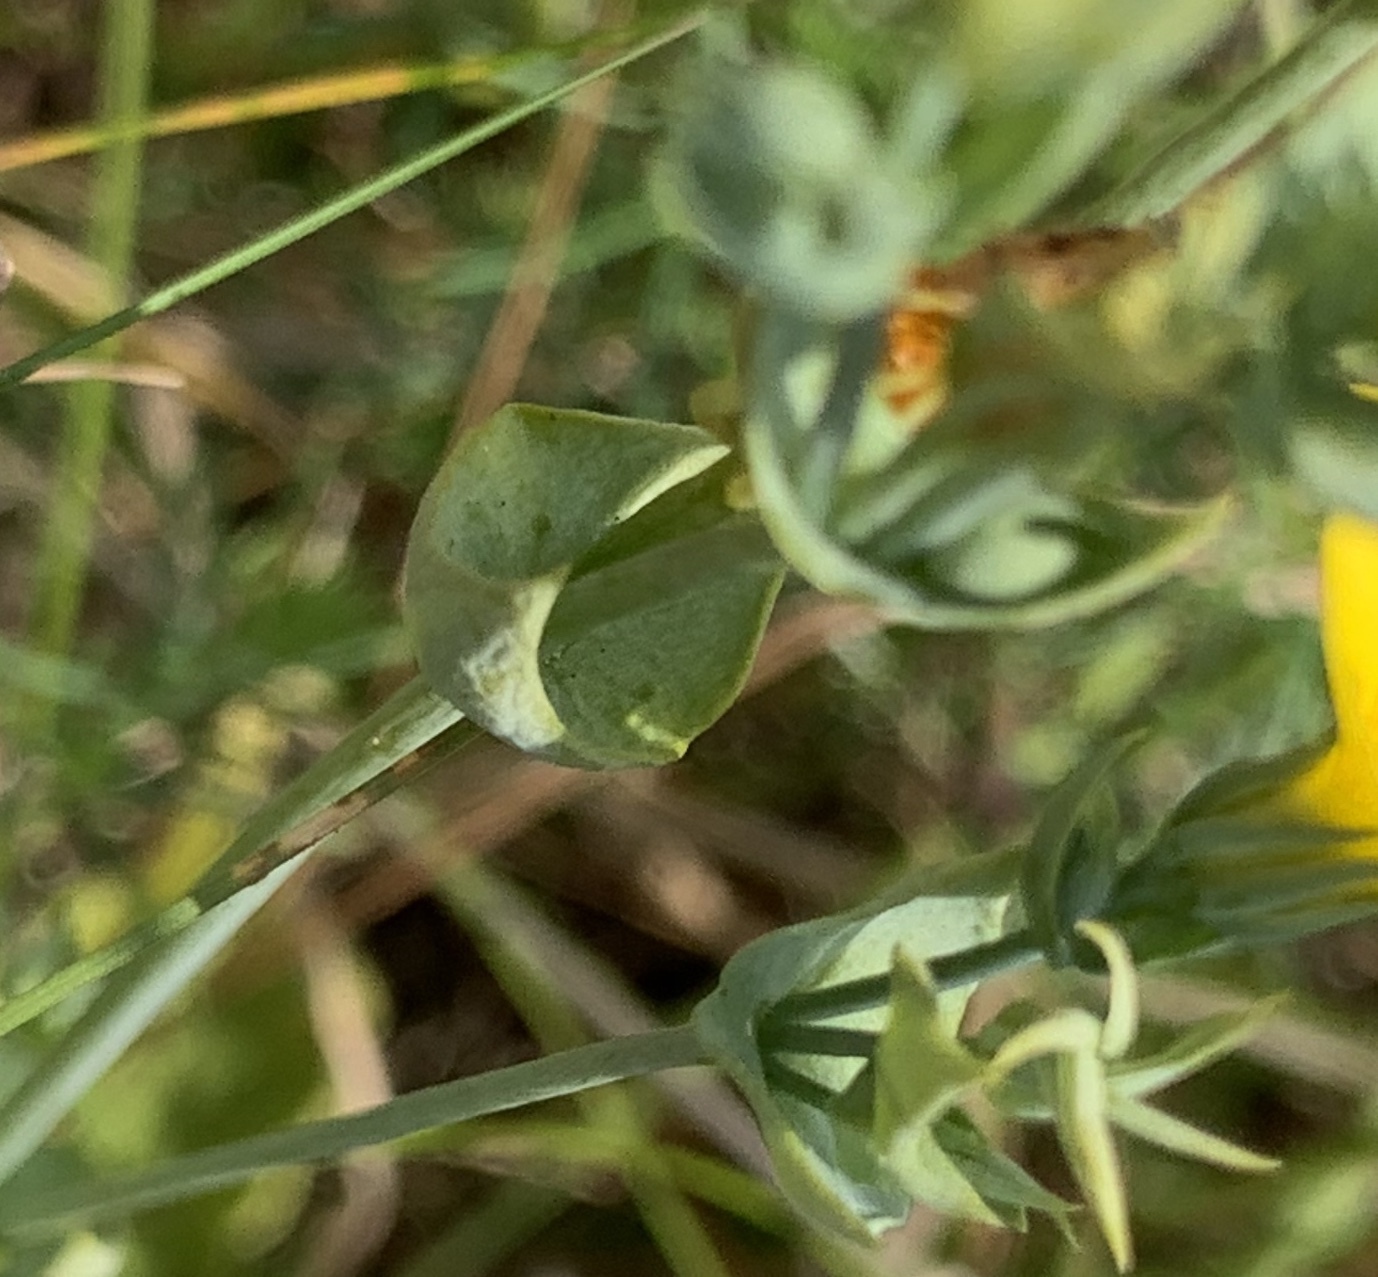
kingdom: Plantae
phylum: Tracheophyta
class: Magnoliopsida
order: Gentianales
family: Gentianaceae
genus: Blackstonia
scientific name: Blackstonia perfoliata
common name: Yellow-wort
